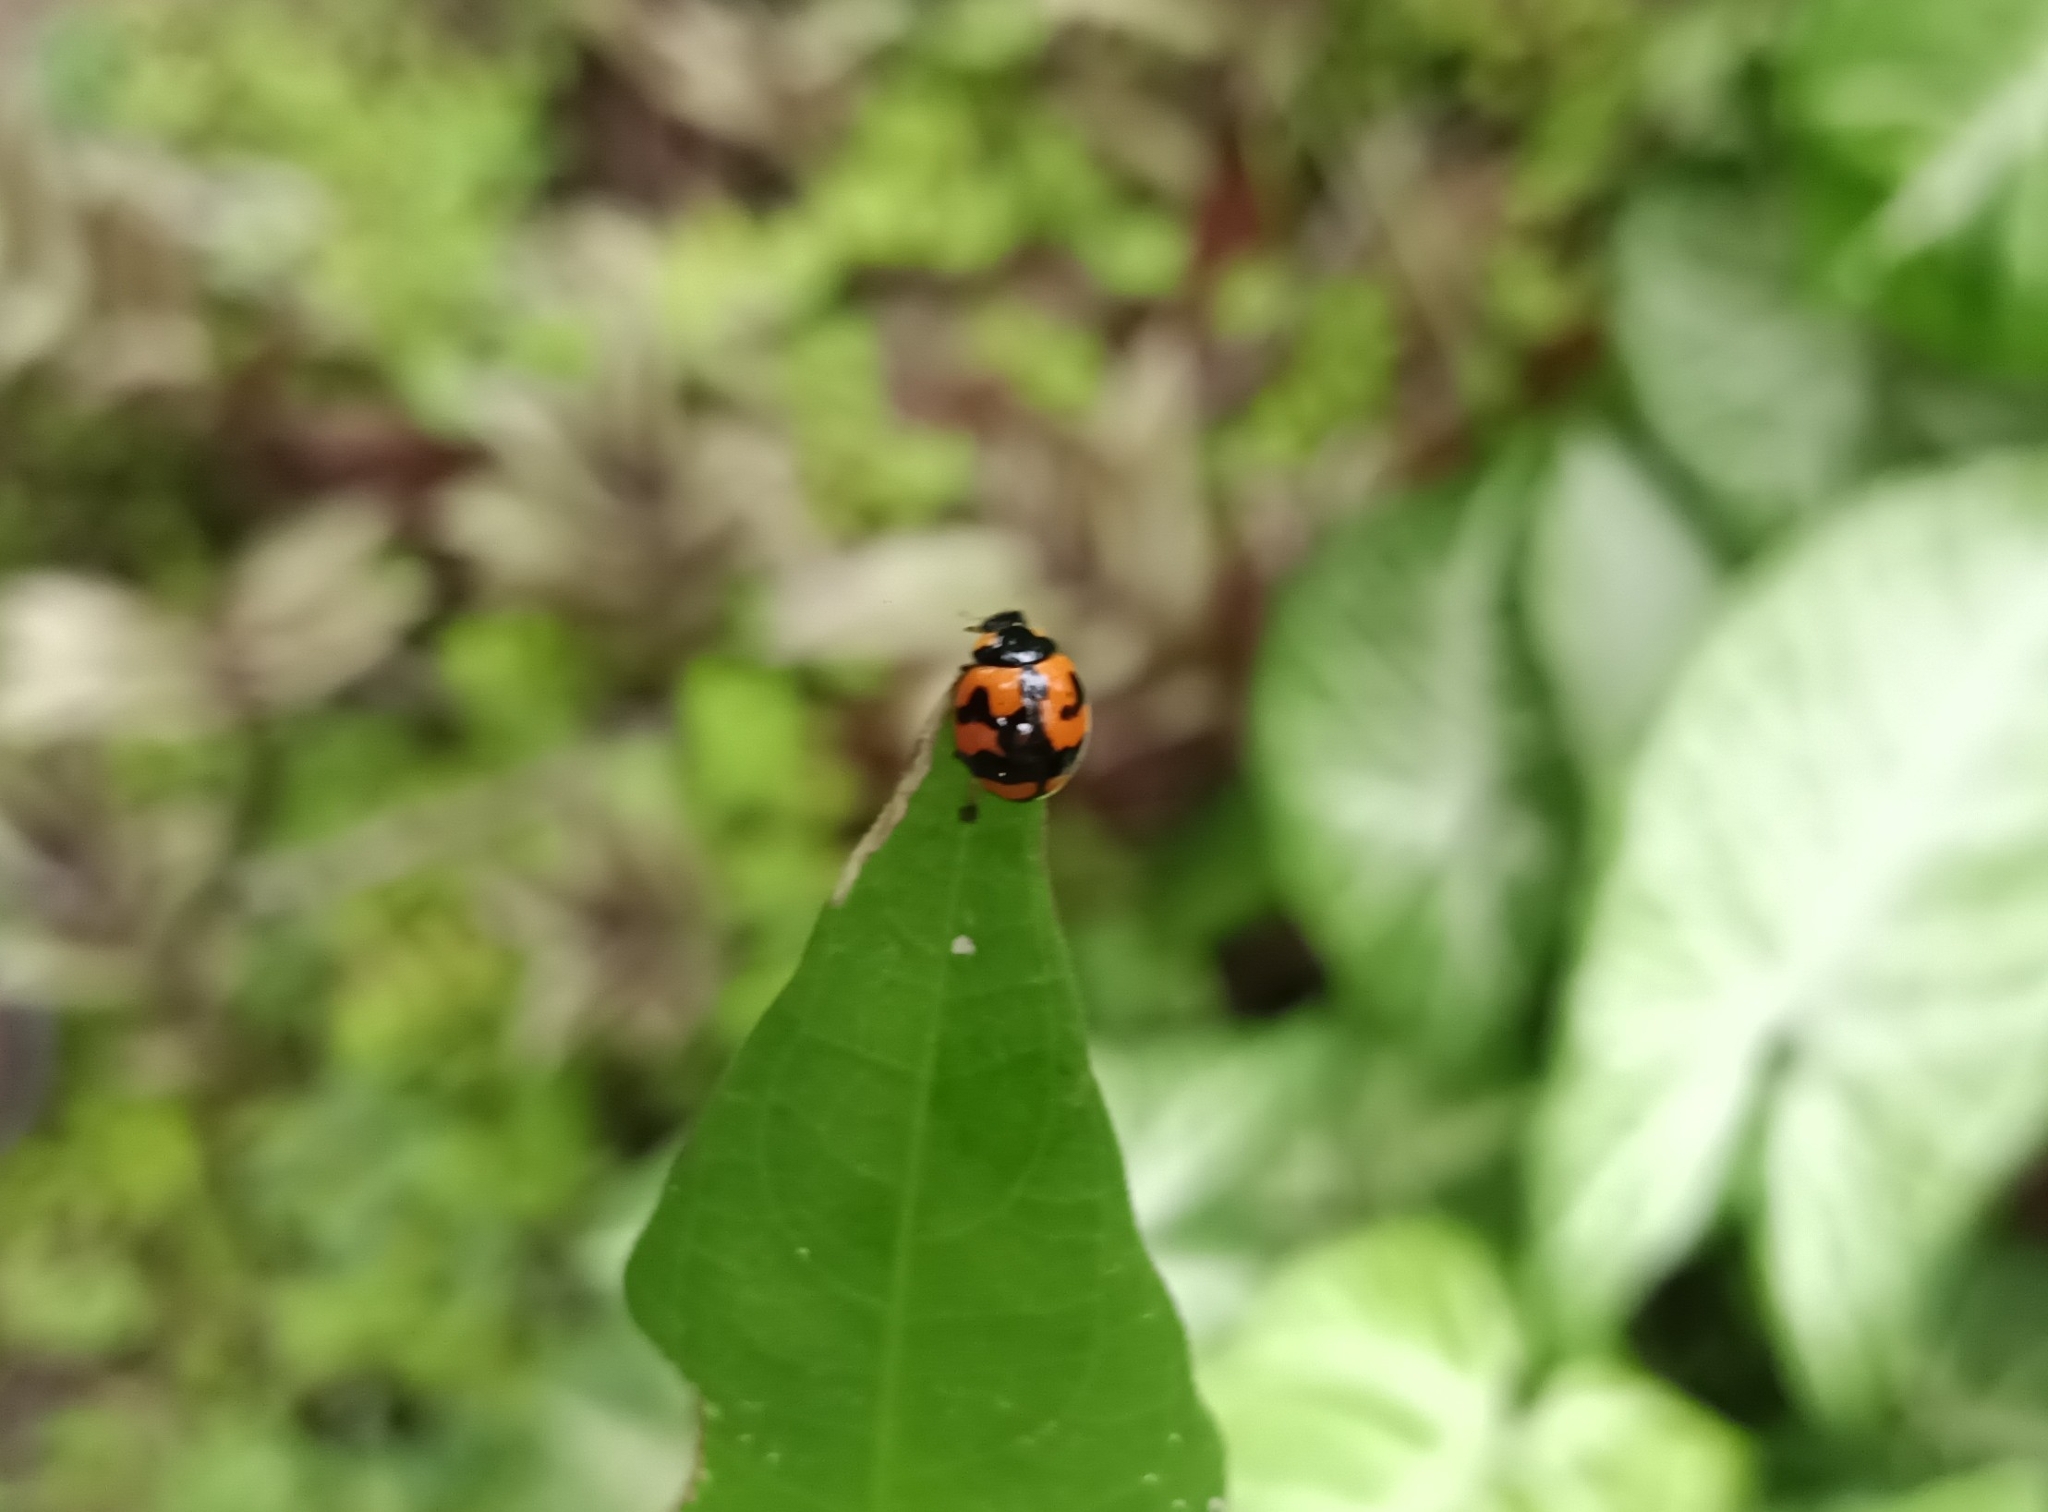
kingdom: Animalia
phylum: Arthropoda
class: Insecta
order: Coleoptera
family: Coccinellidae
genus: Coccinella
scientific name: Coccinella transversalis
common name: Transverse lady beetle
